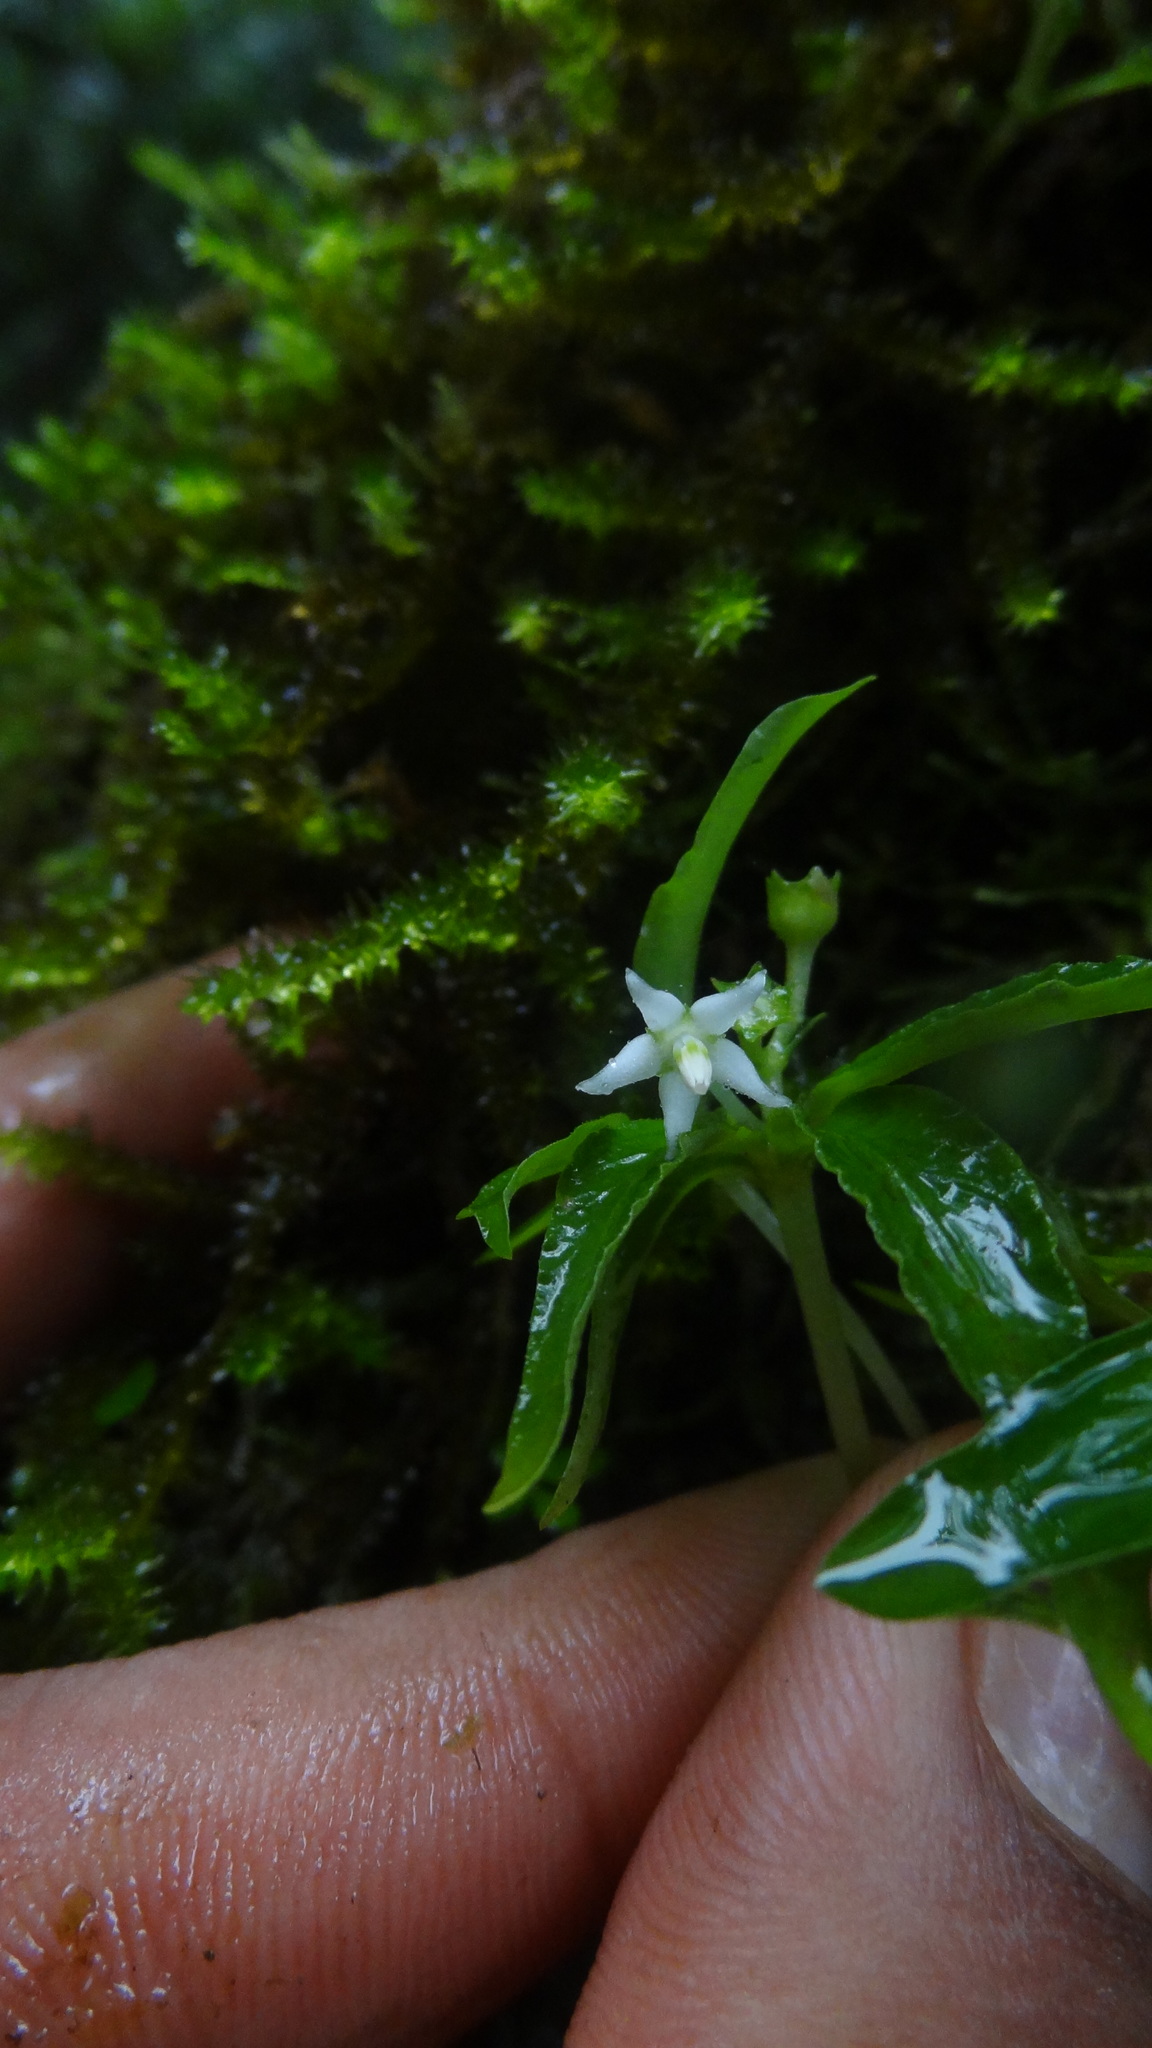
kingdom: Plantae
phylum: Tracheophyta
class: Magnoliopsida
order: Gentianales
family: Rubiaceae
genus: Argostemma
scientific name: Argostemma verticillatum
